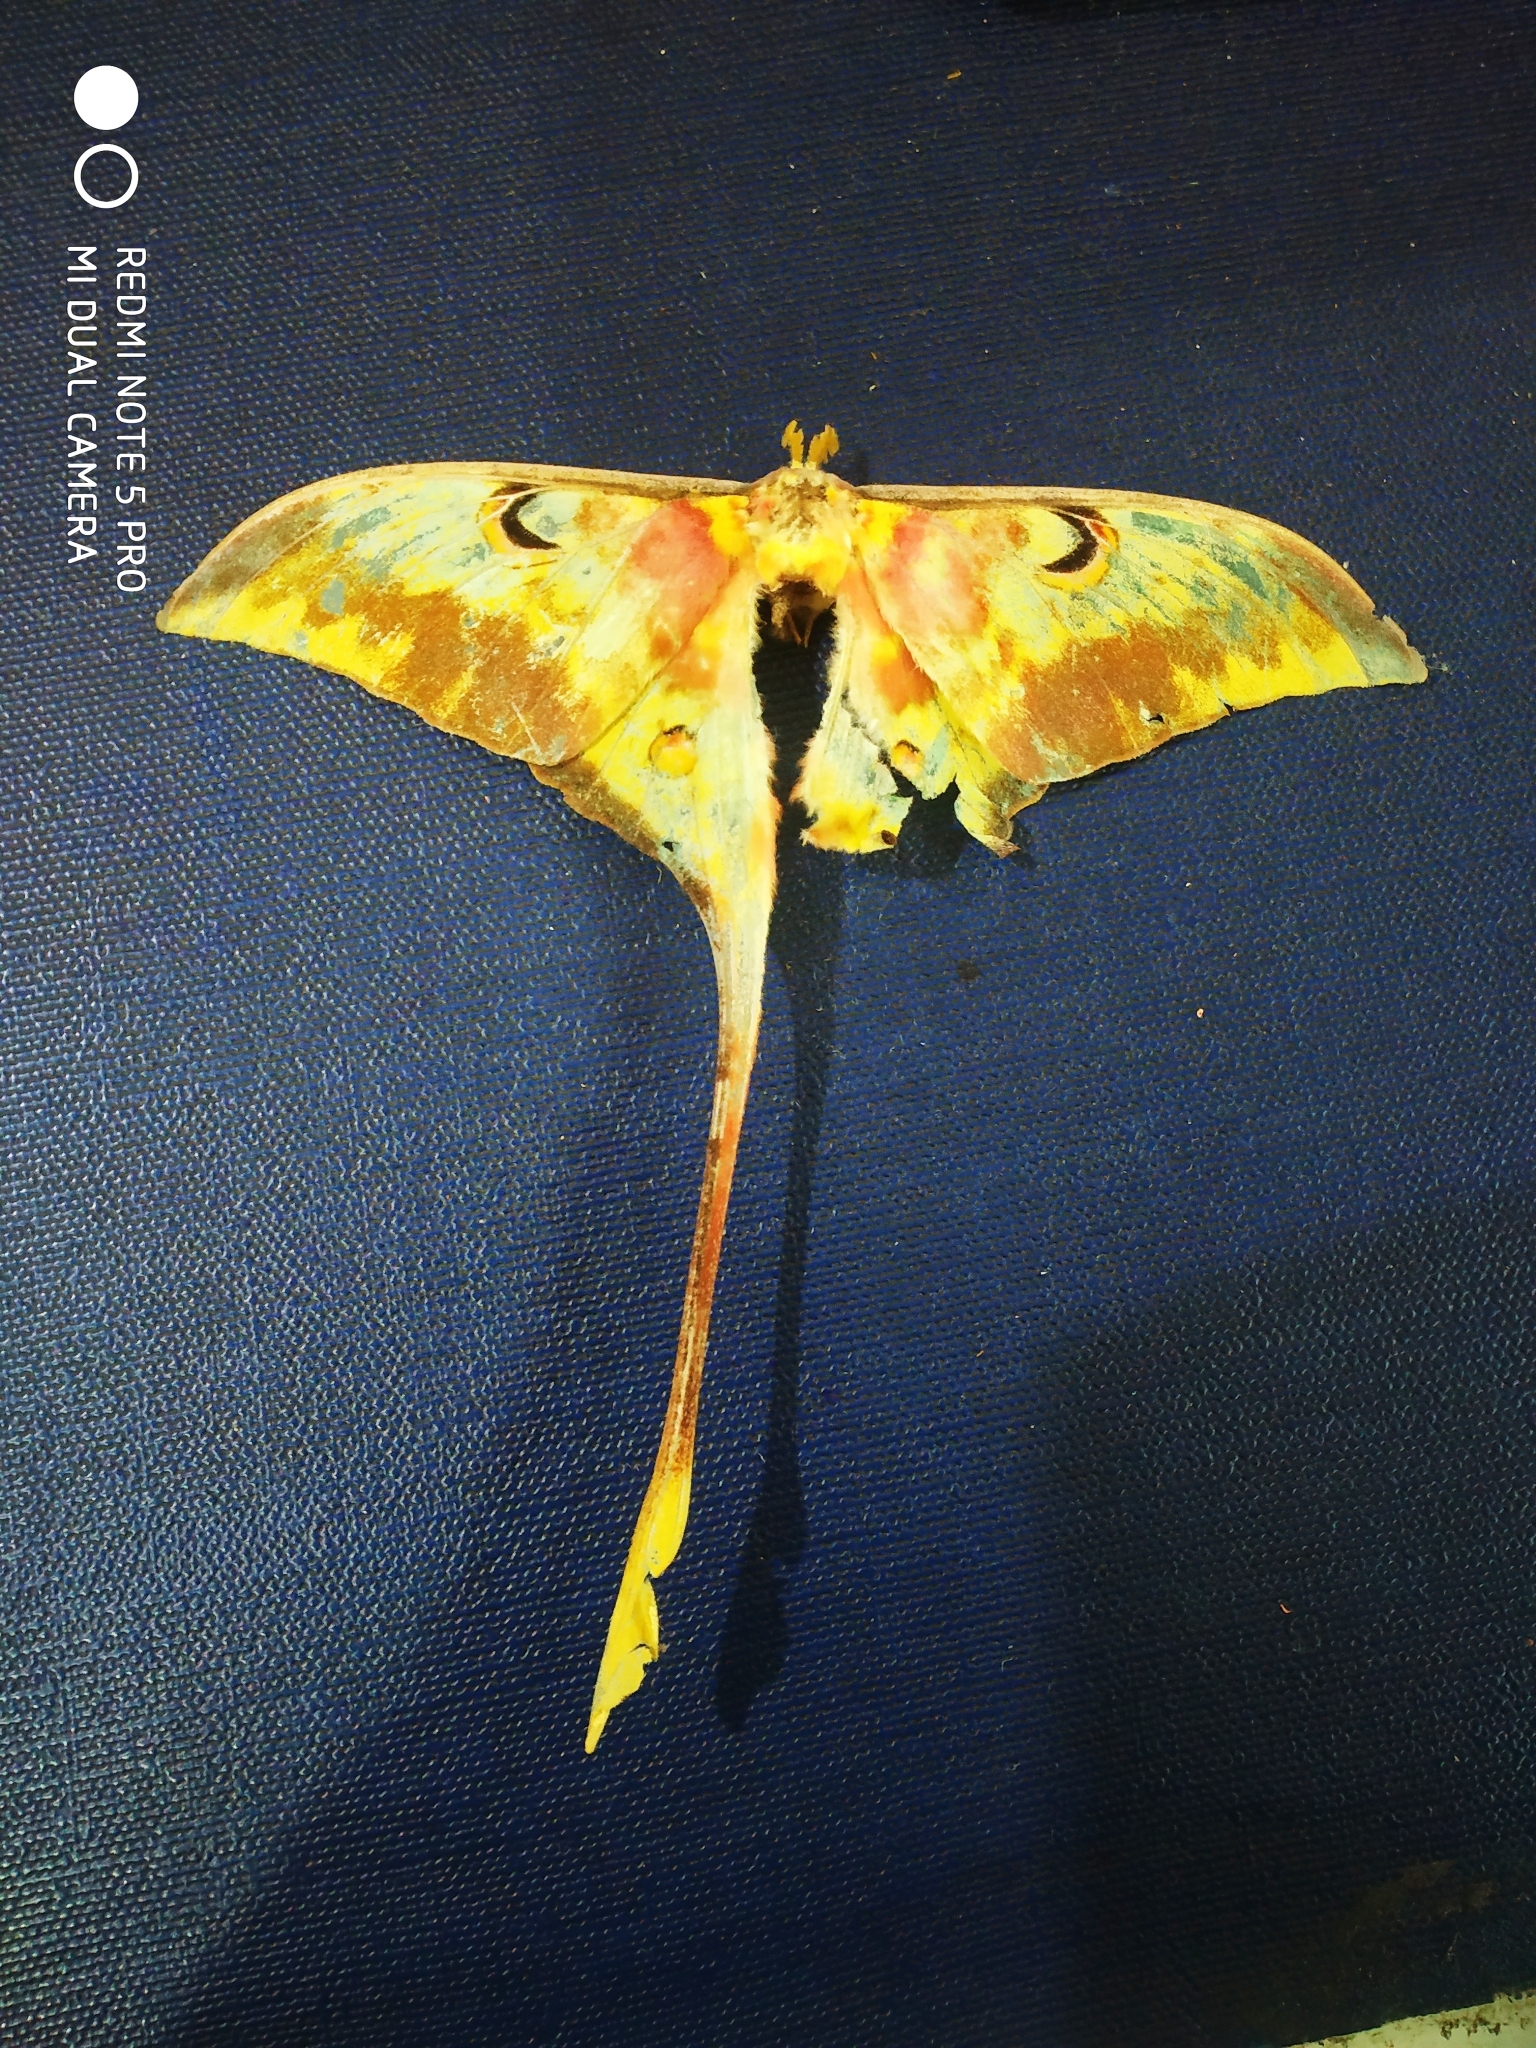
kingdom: Animalia
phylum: Arthropoda
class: Insecta
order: Lepidoptera
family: Saturniidae
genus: Actias
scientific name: Actias
